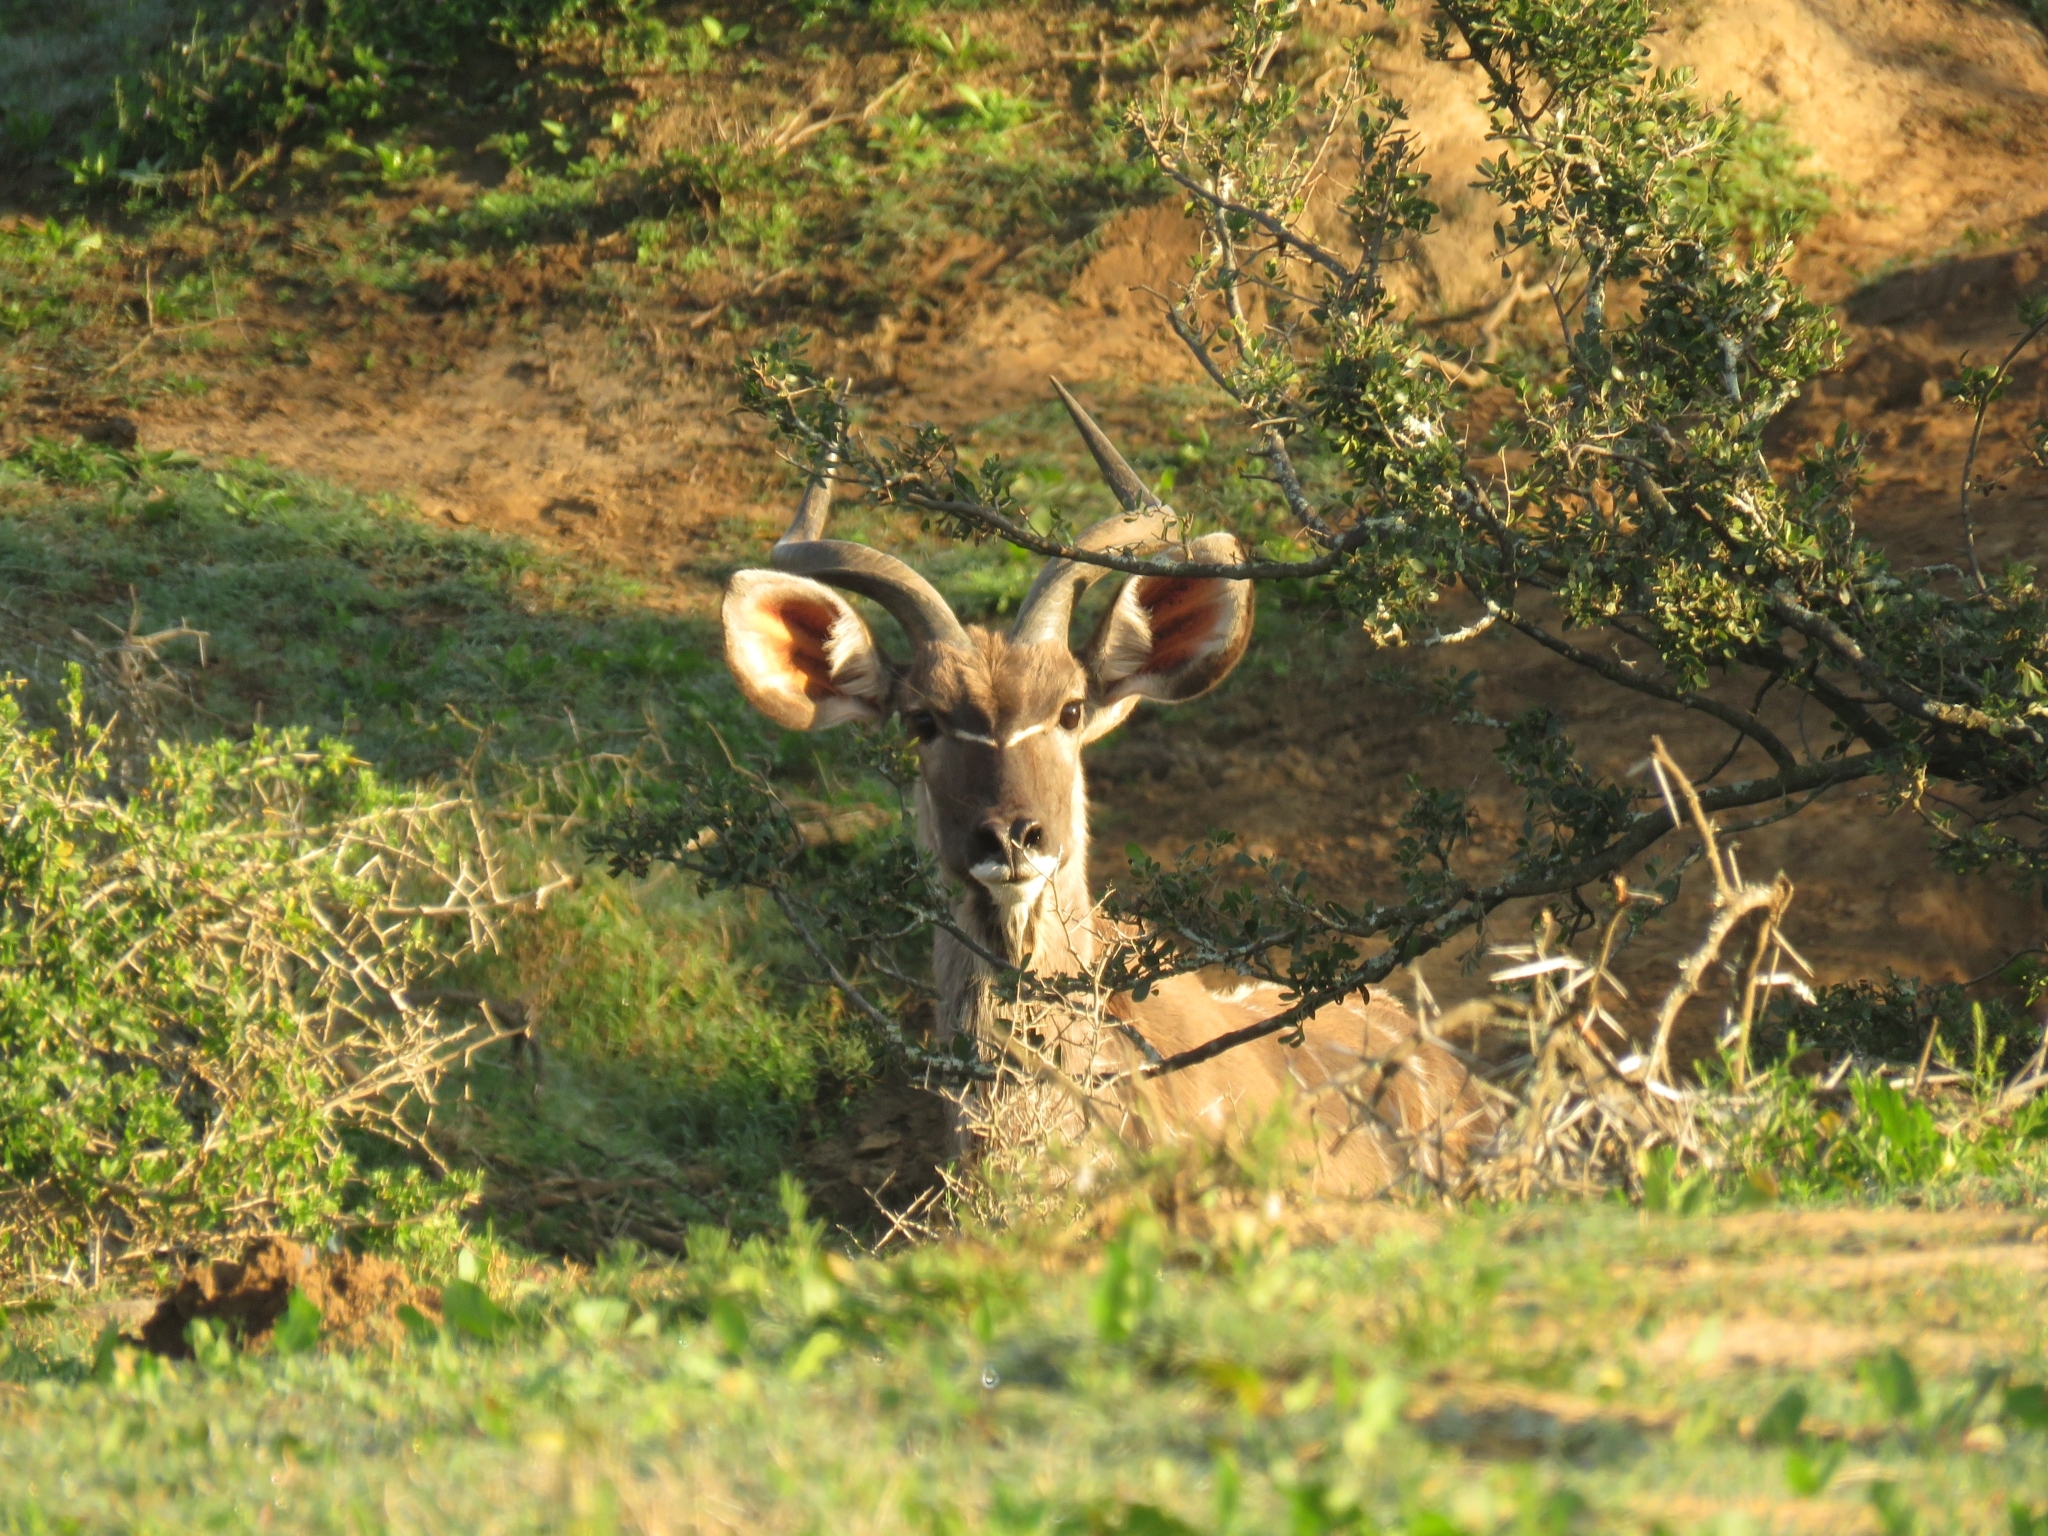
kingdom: Animalia
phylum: Chordata
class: Mammalia
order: Artiodactyla
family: Bovidae
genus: Tragelaphus
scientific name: Tragelaphus strepsiceros
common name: Greater kudu
